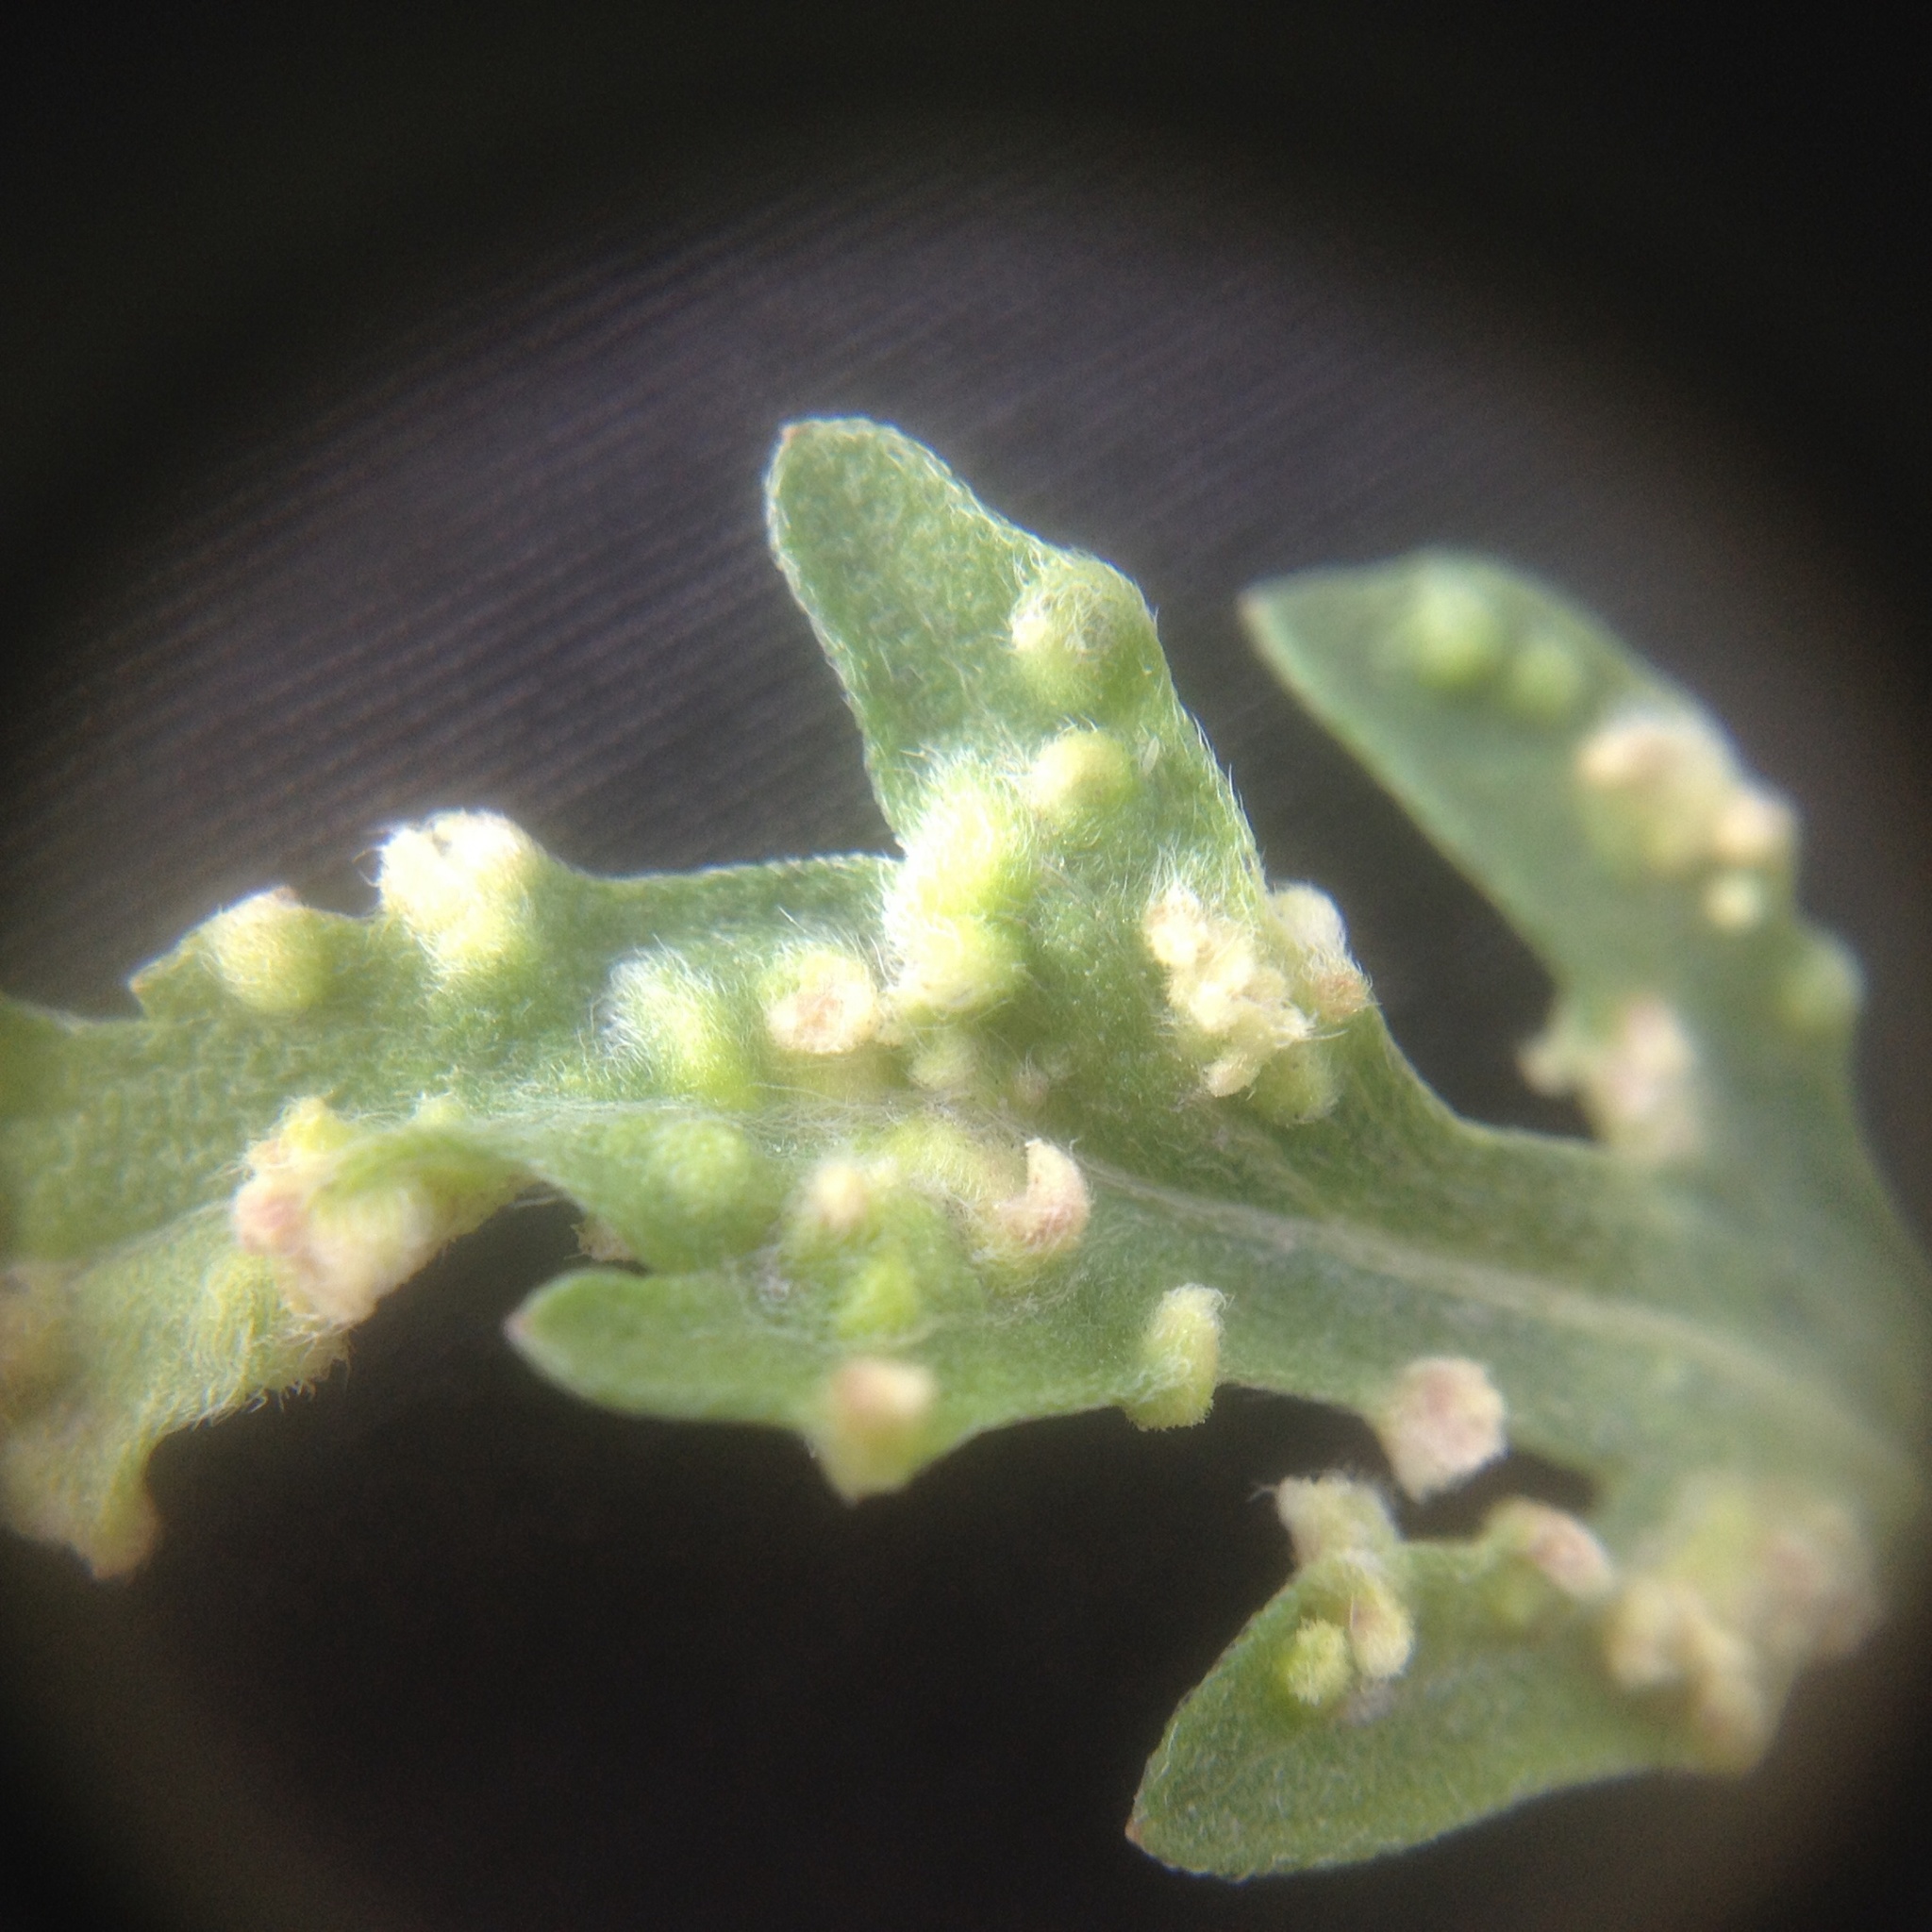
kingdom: Animalia
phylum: Arthropoda
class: Arachnida
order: Trombidiformes
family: Eriophyidae
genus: Aceria
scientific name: Aceria
